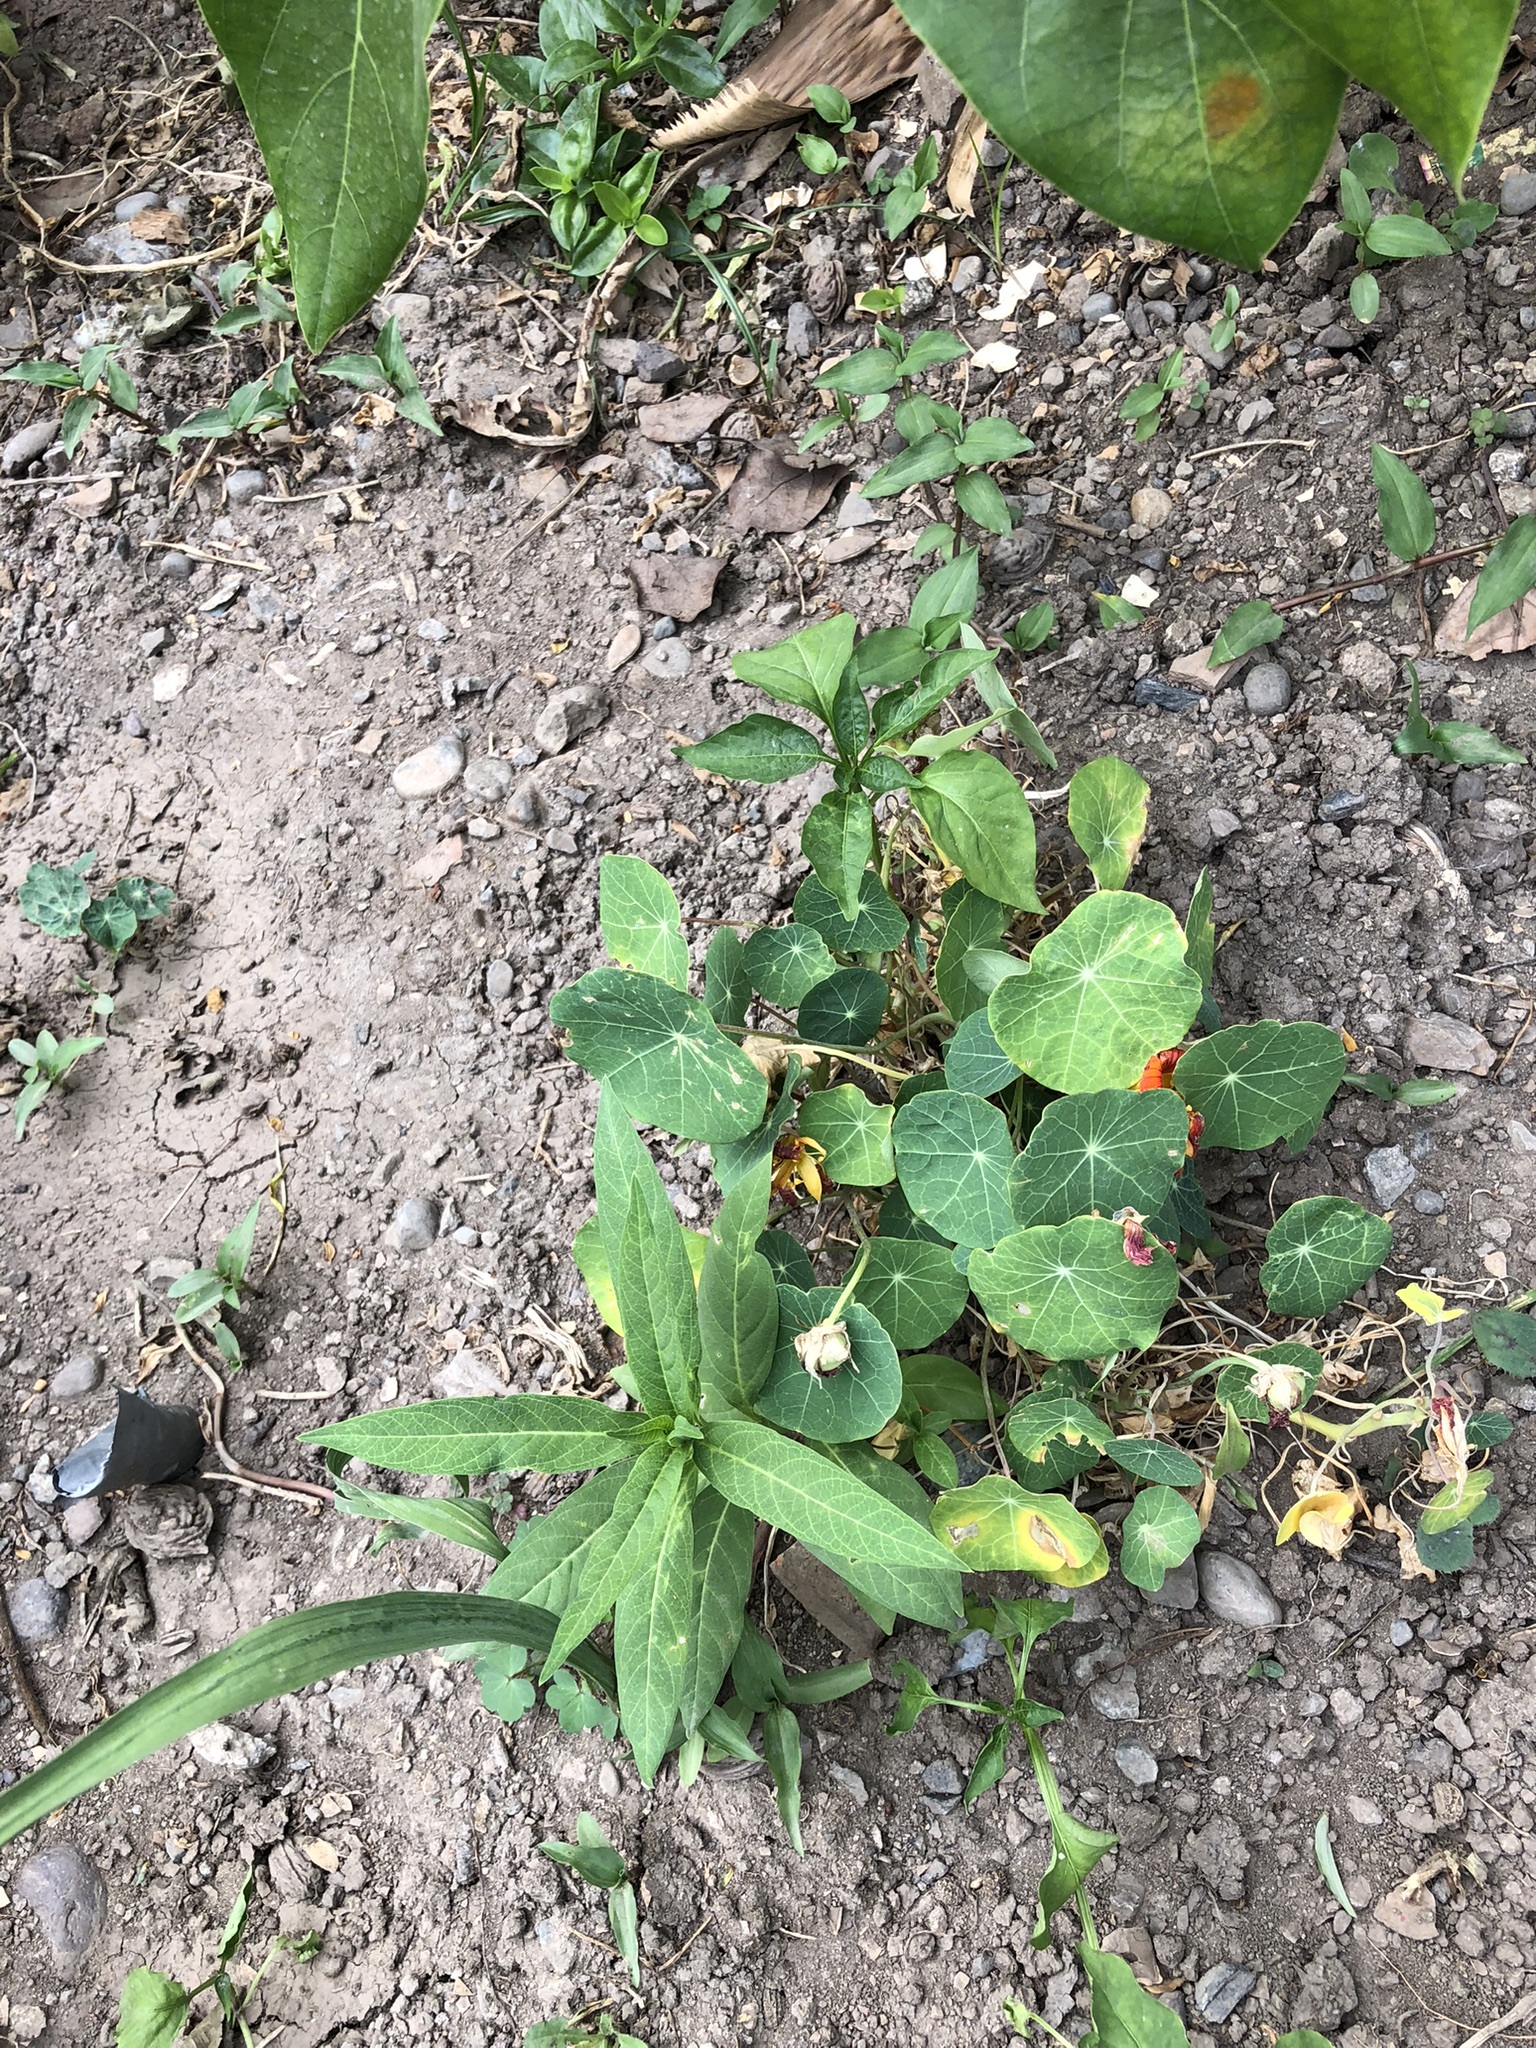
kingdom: Plantae
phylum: Tracheophyta
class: Magnoliopsida
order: Solanales
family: Solanaceae
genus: Capsicum
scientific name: Capsicum annuum
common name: Sweet pepper
